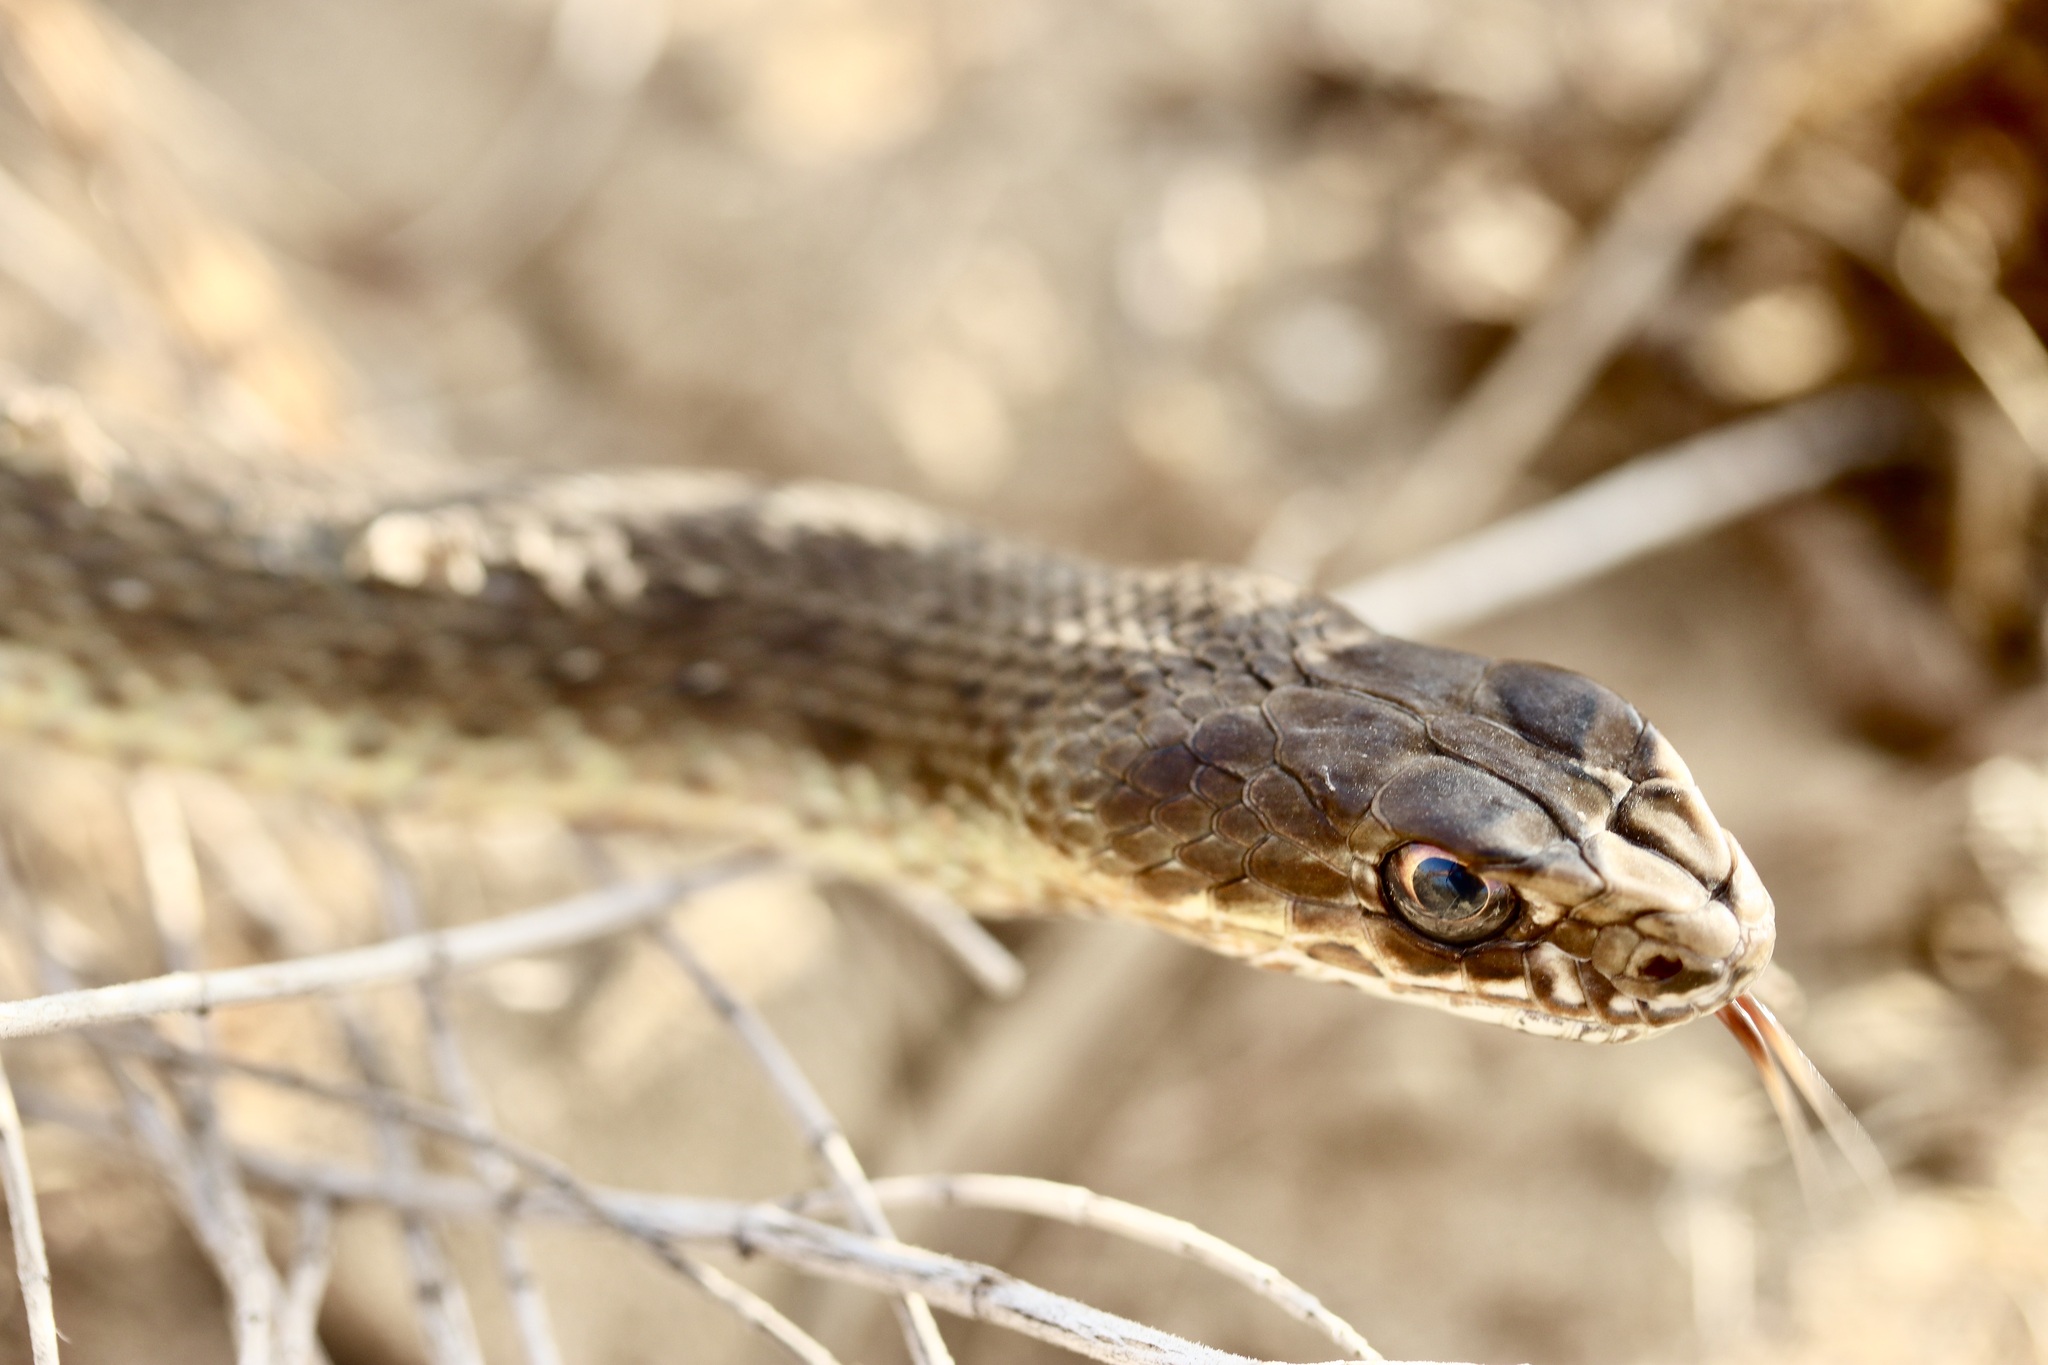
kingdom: Animalia
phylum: Chordata
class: Squamata
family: Psammophiidae
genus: Malpolon
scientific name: Malpolon insignitus
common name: Eastern montpellier snake
